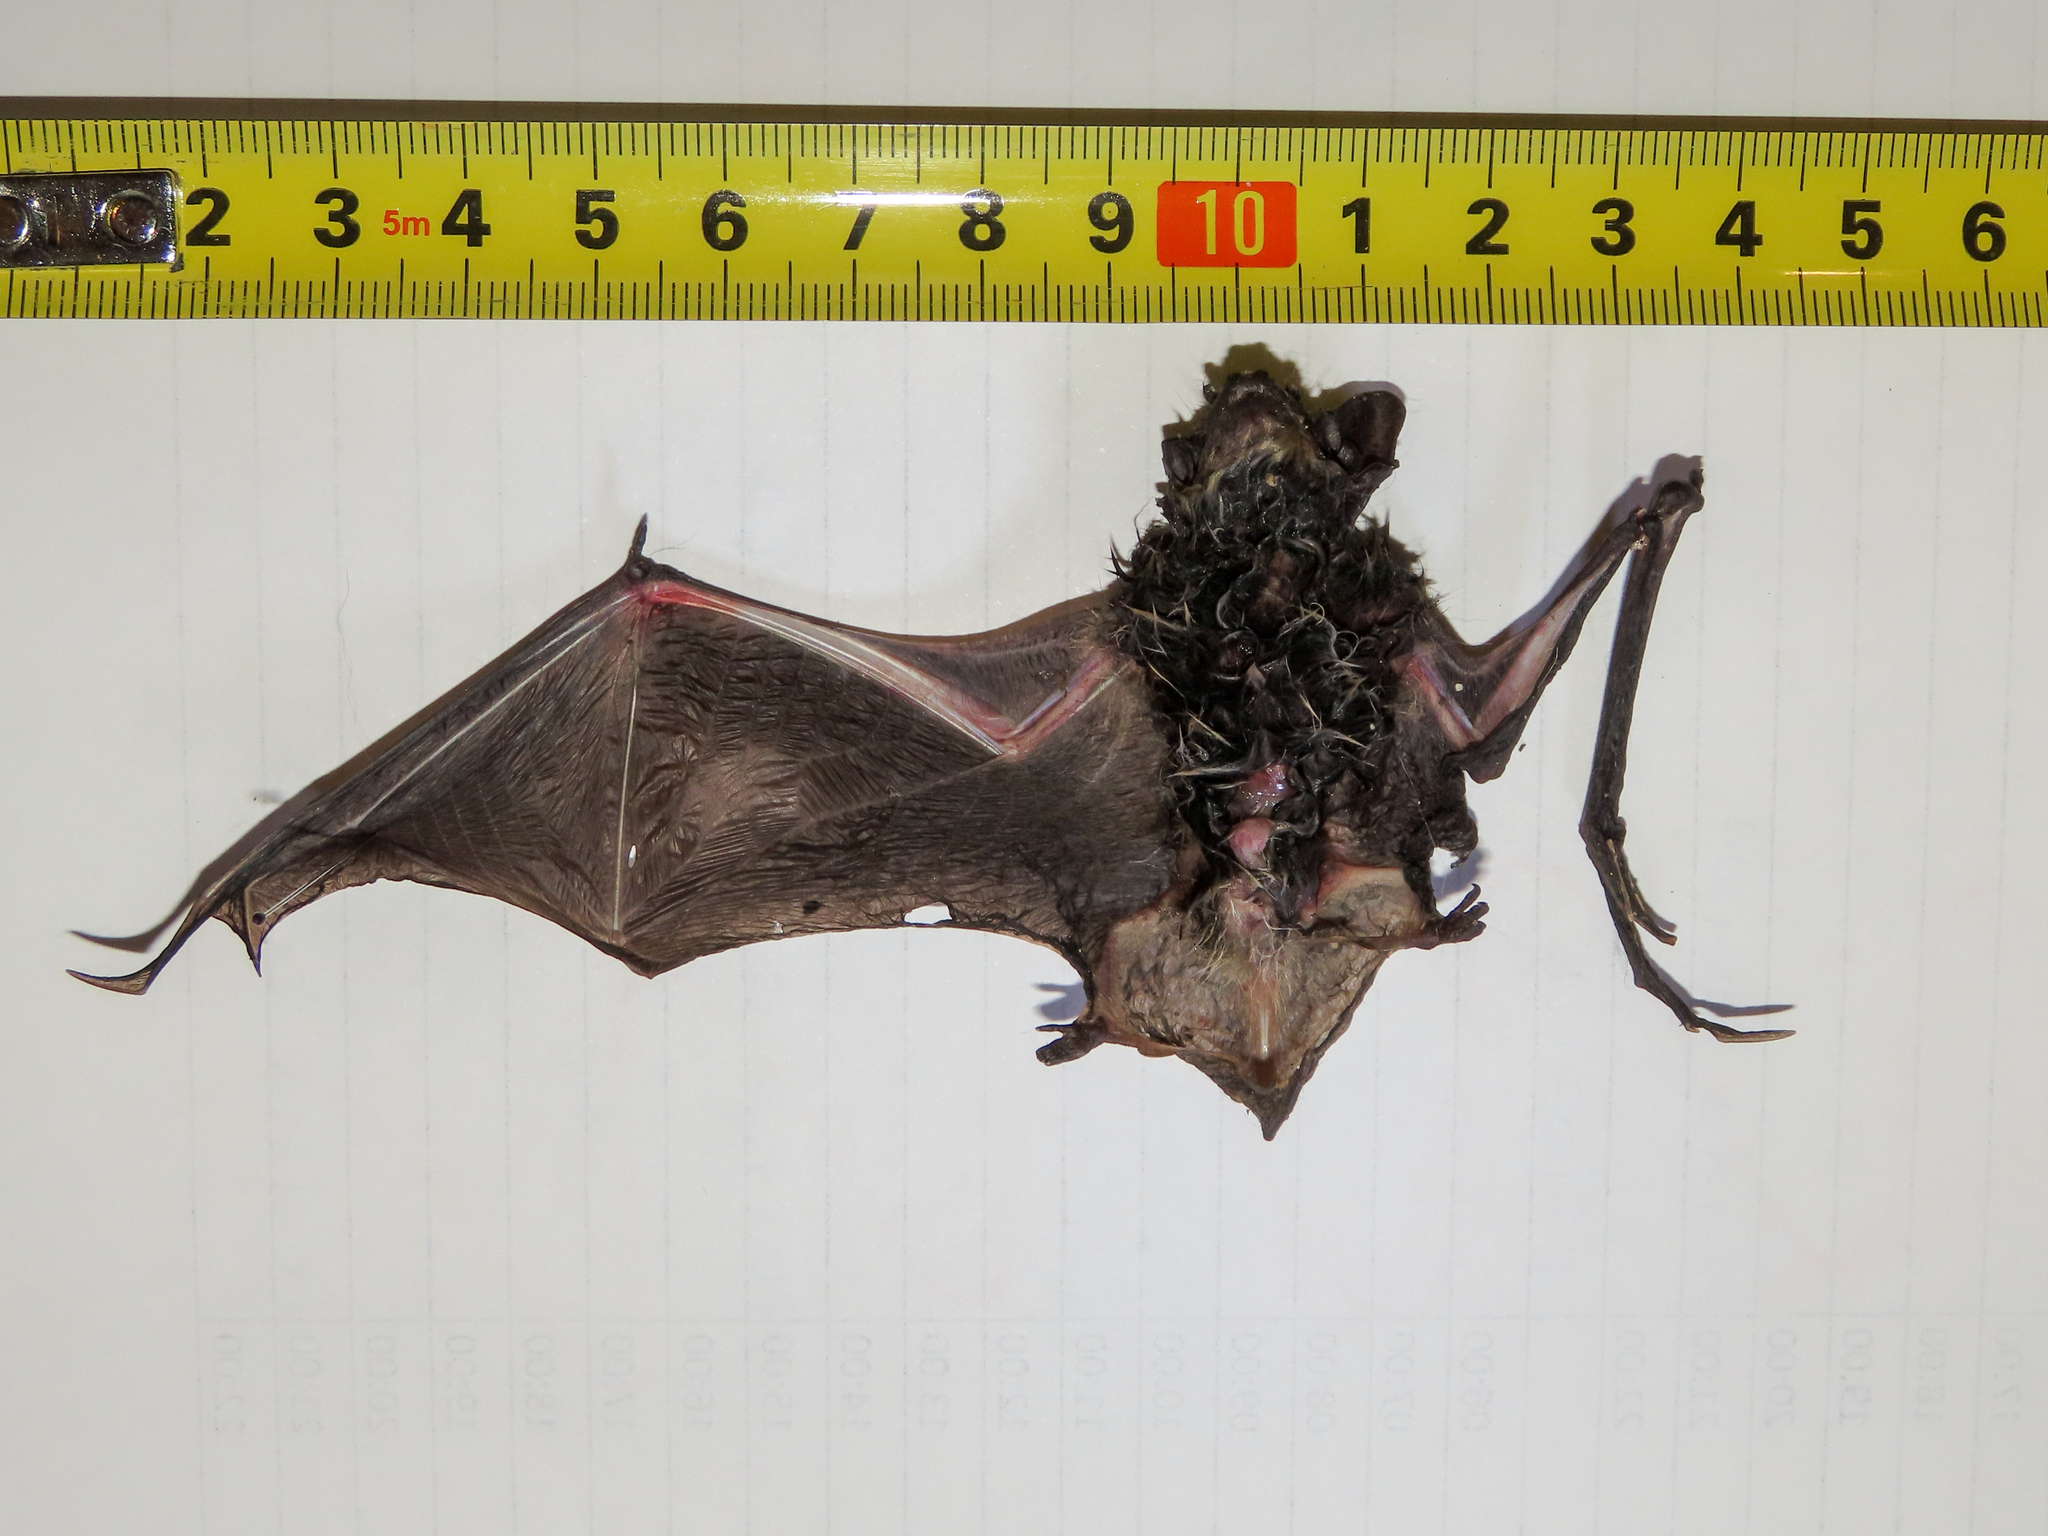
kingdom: Animalia
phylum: Chordata
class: Mammalia
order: Chiroptera
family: Vespertilionidae
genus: Hypsugo
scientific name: Hypsugo savii
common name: Savi's pipistrelle
